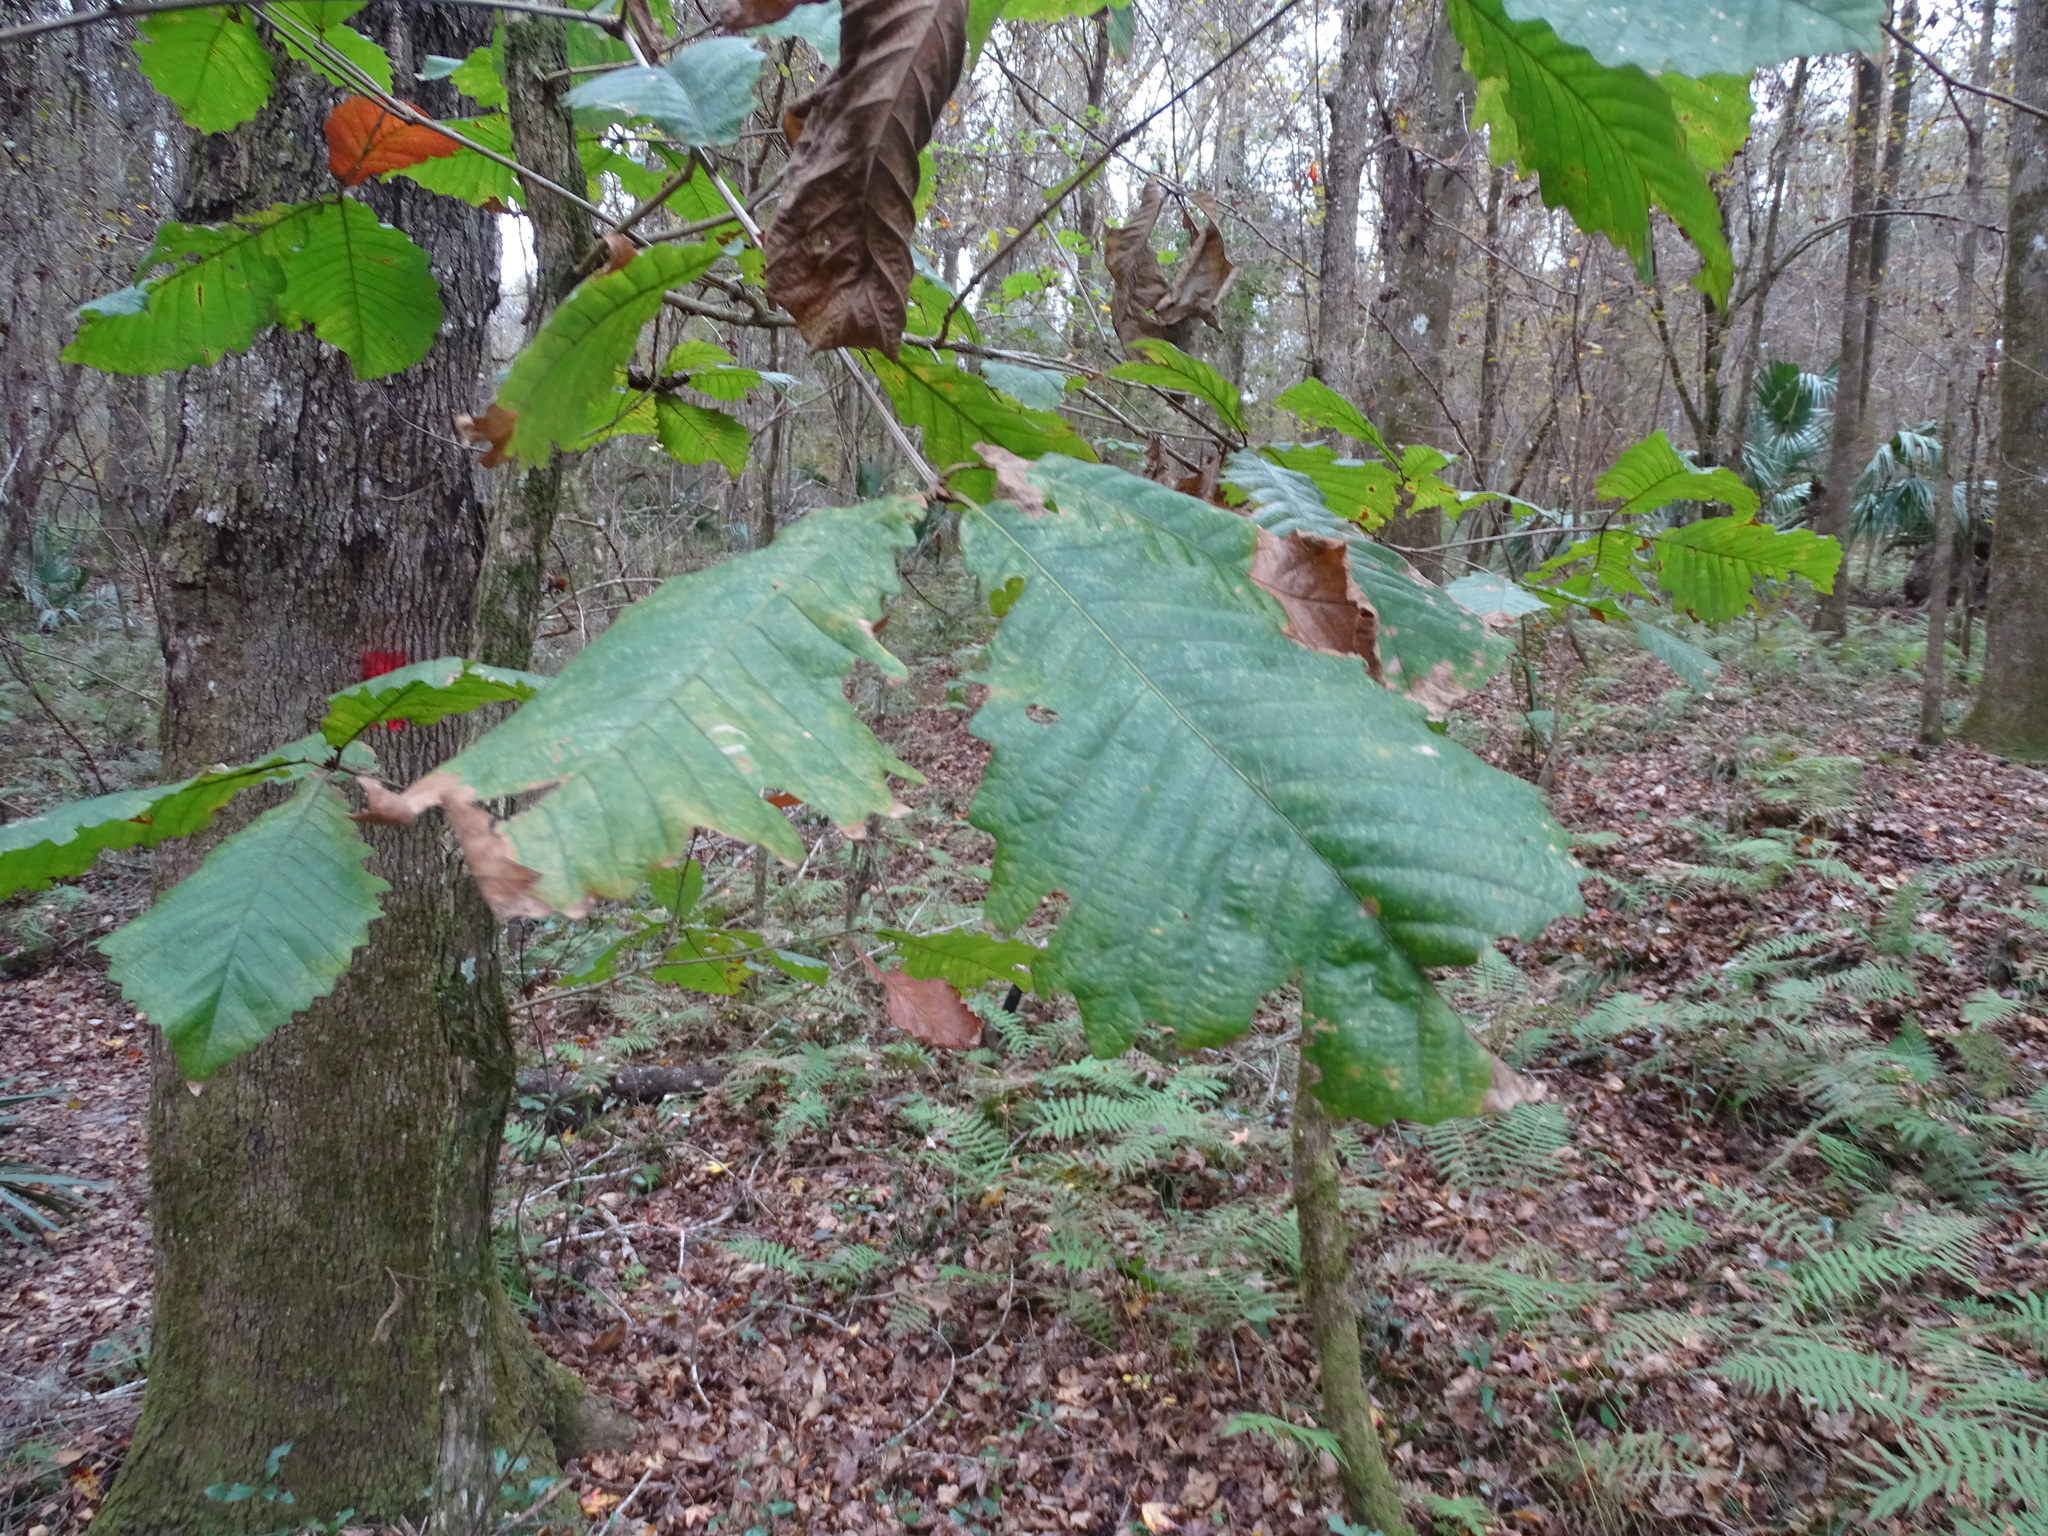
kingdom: Plantae
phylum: Tracheophyta
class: Magnoliopsida
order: Fagales
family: Fagaceae
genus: Quercus
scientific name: Quercus michauxii
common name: Swamp chestnut oak
